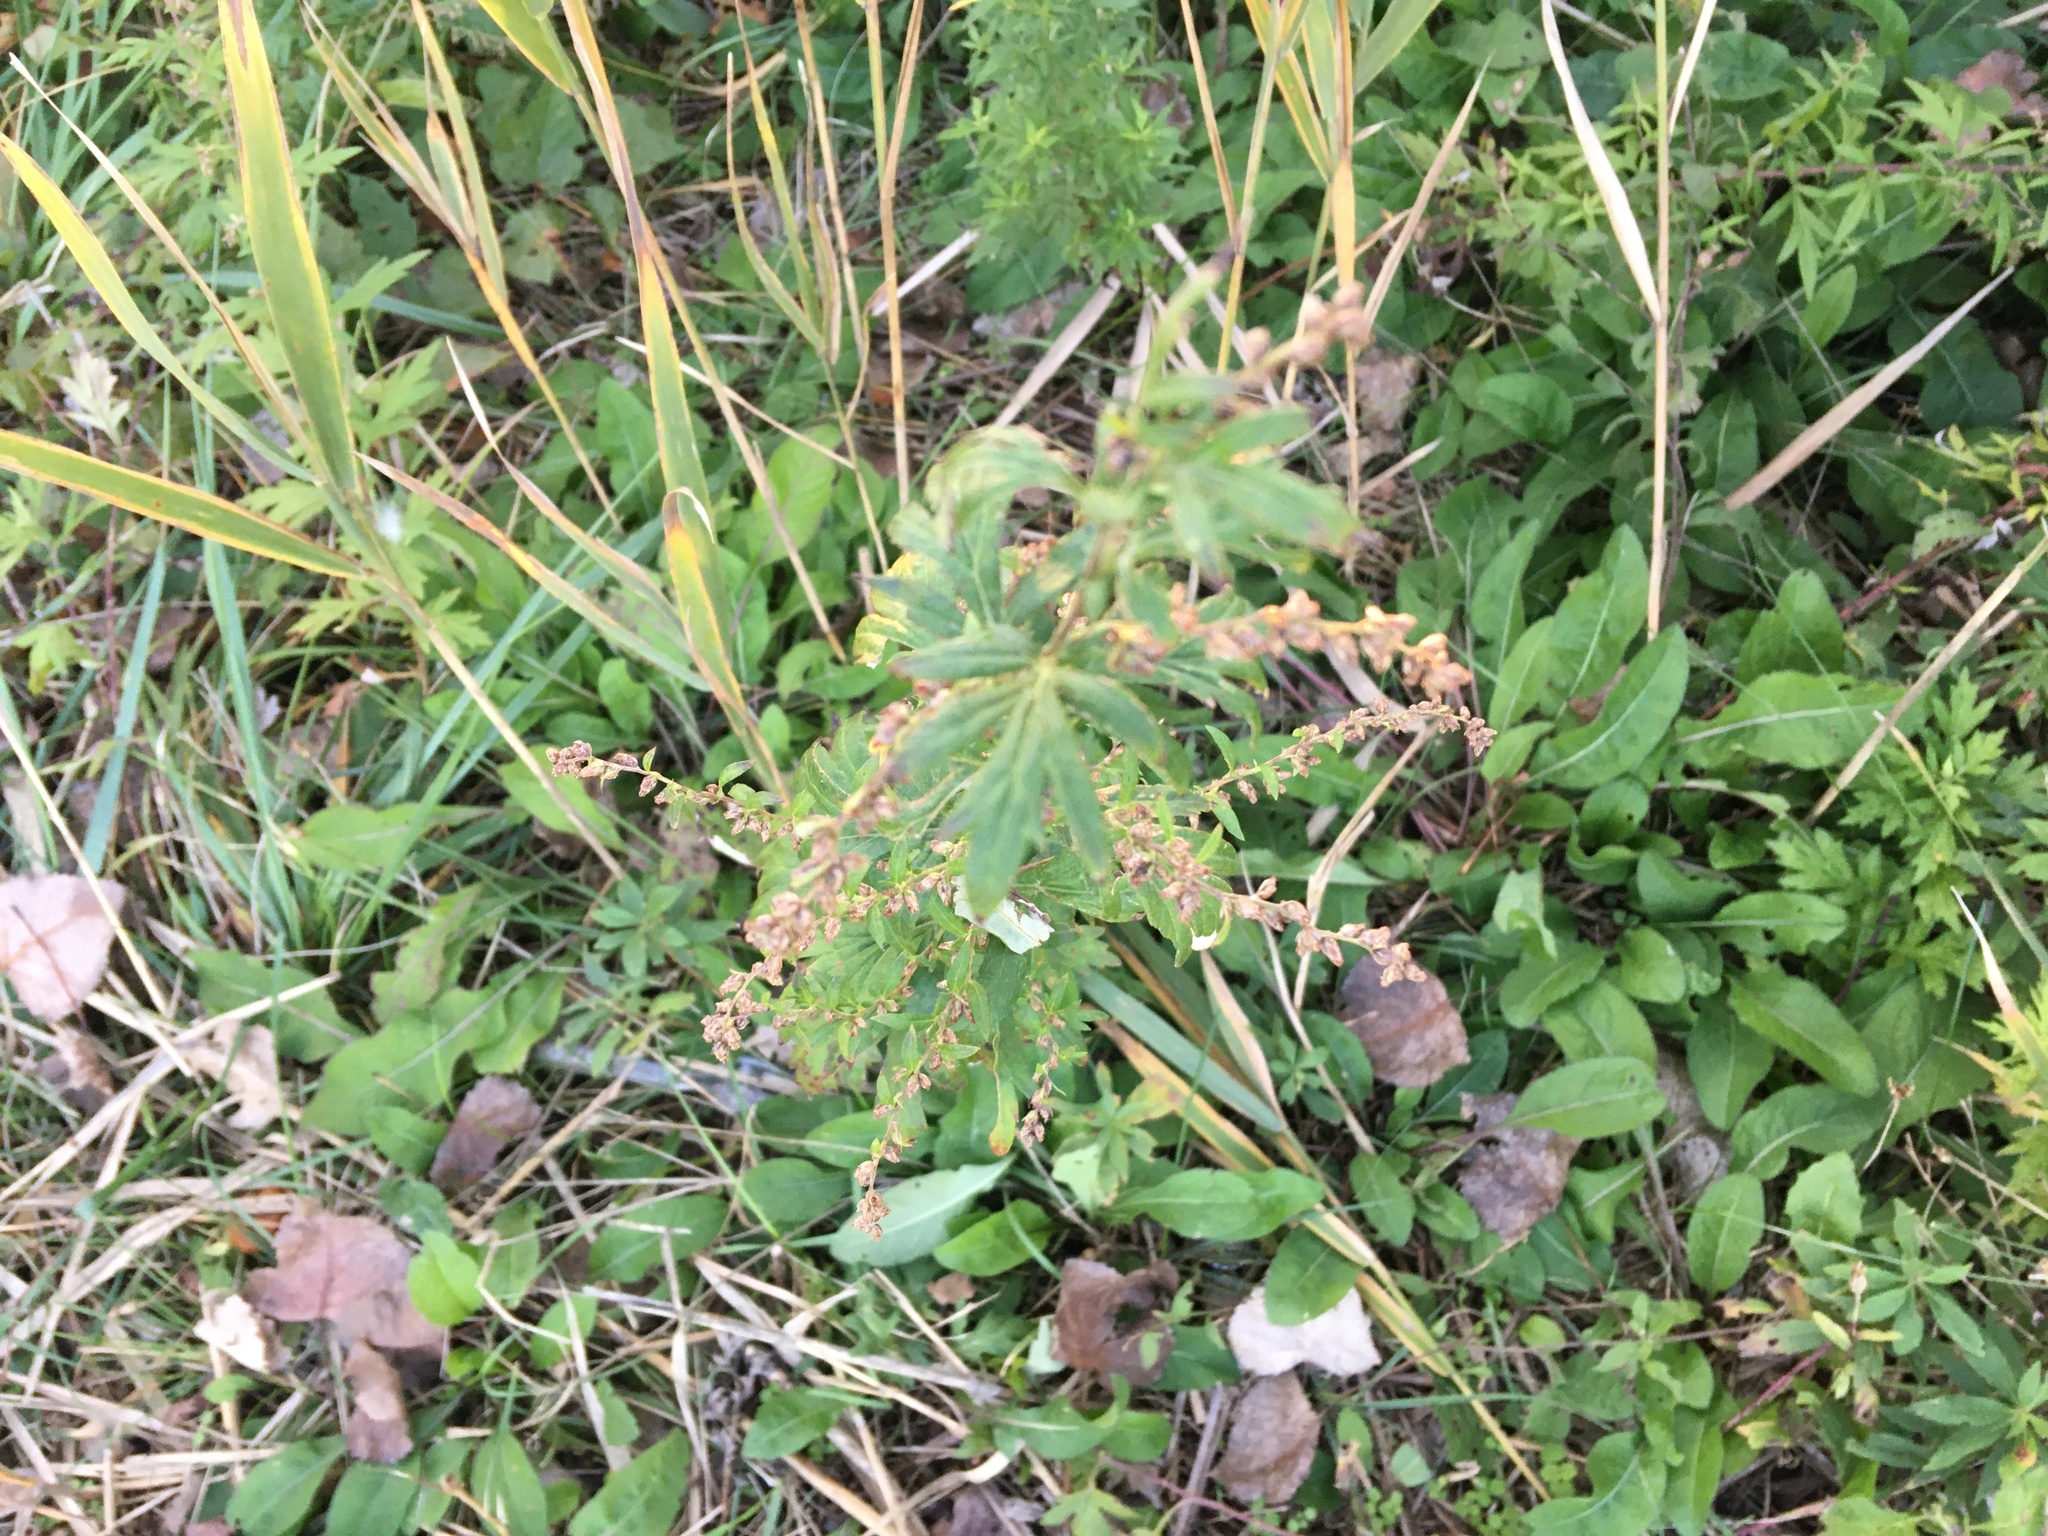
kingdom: Plantae
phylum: Tracheophyta
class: Magnoliopsida
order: Asterales
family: Asteraceae
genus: Artemisia
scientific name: Artemisia vulgaris
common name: Mugwort
